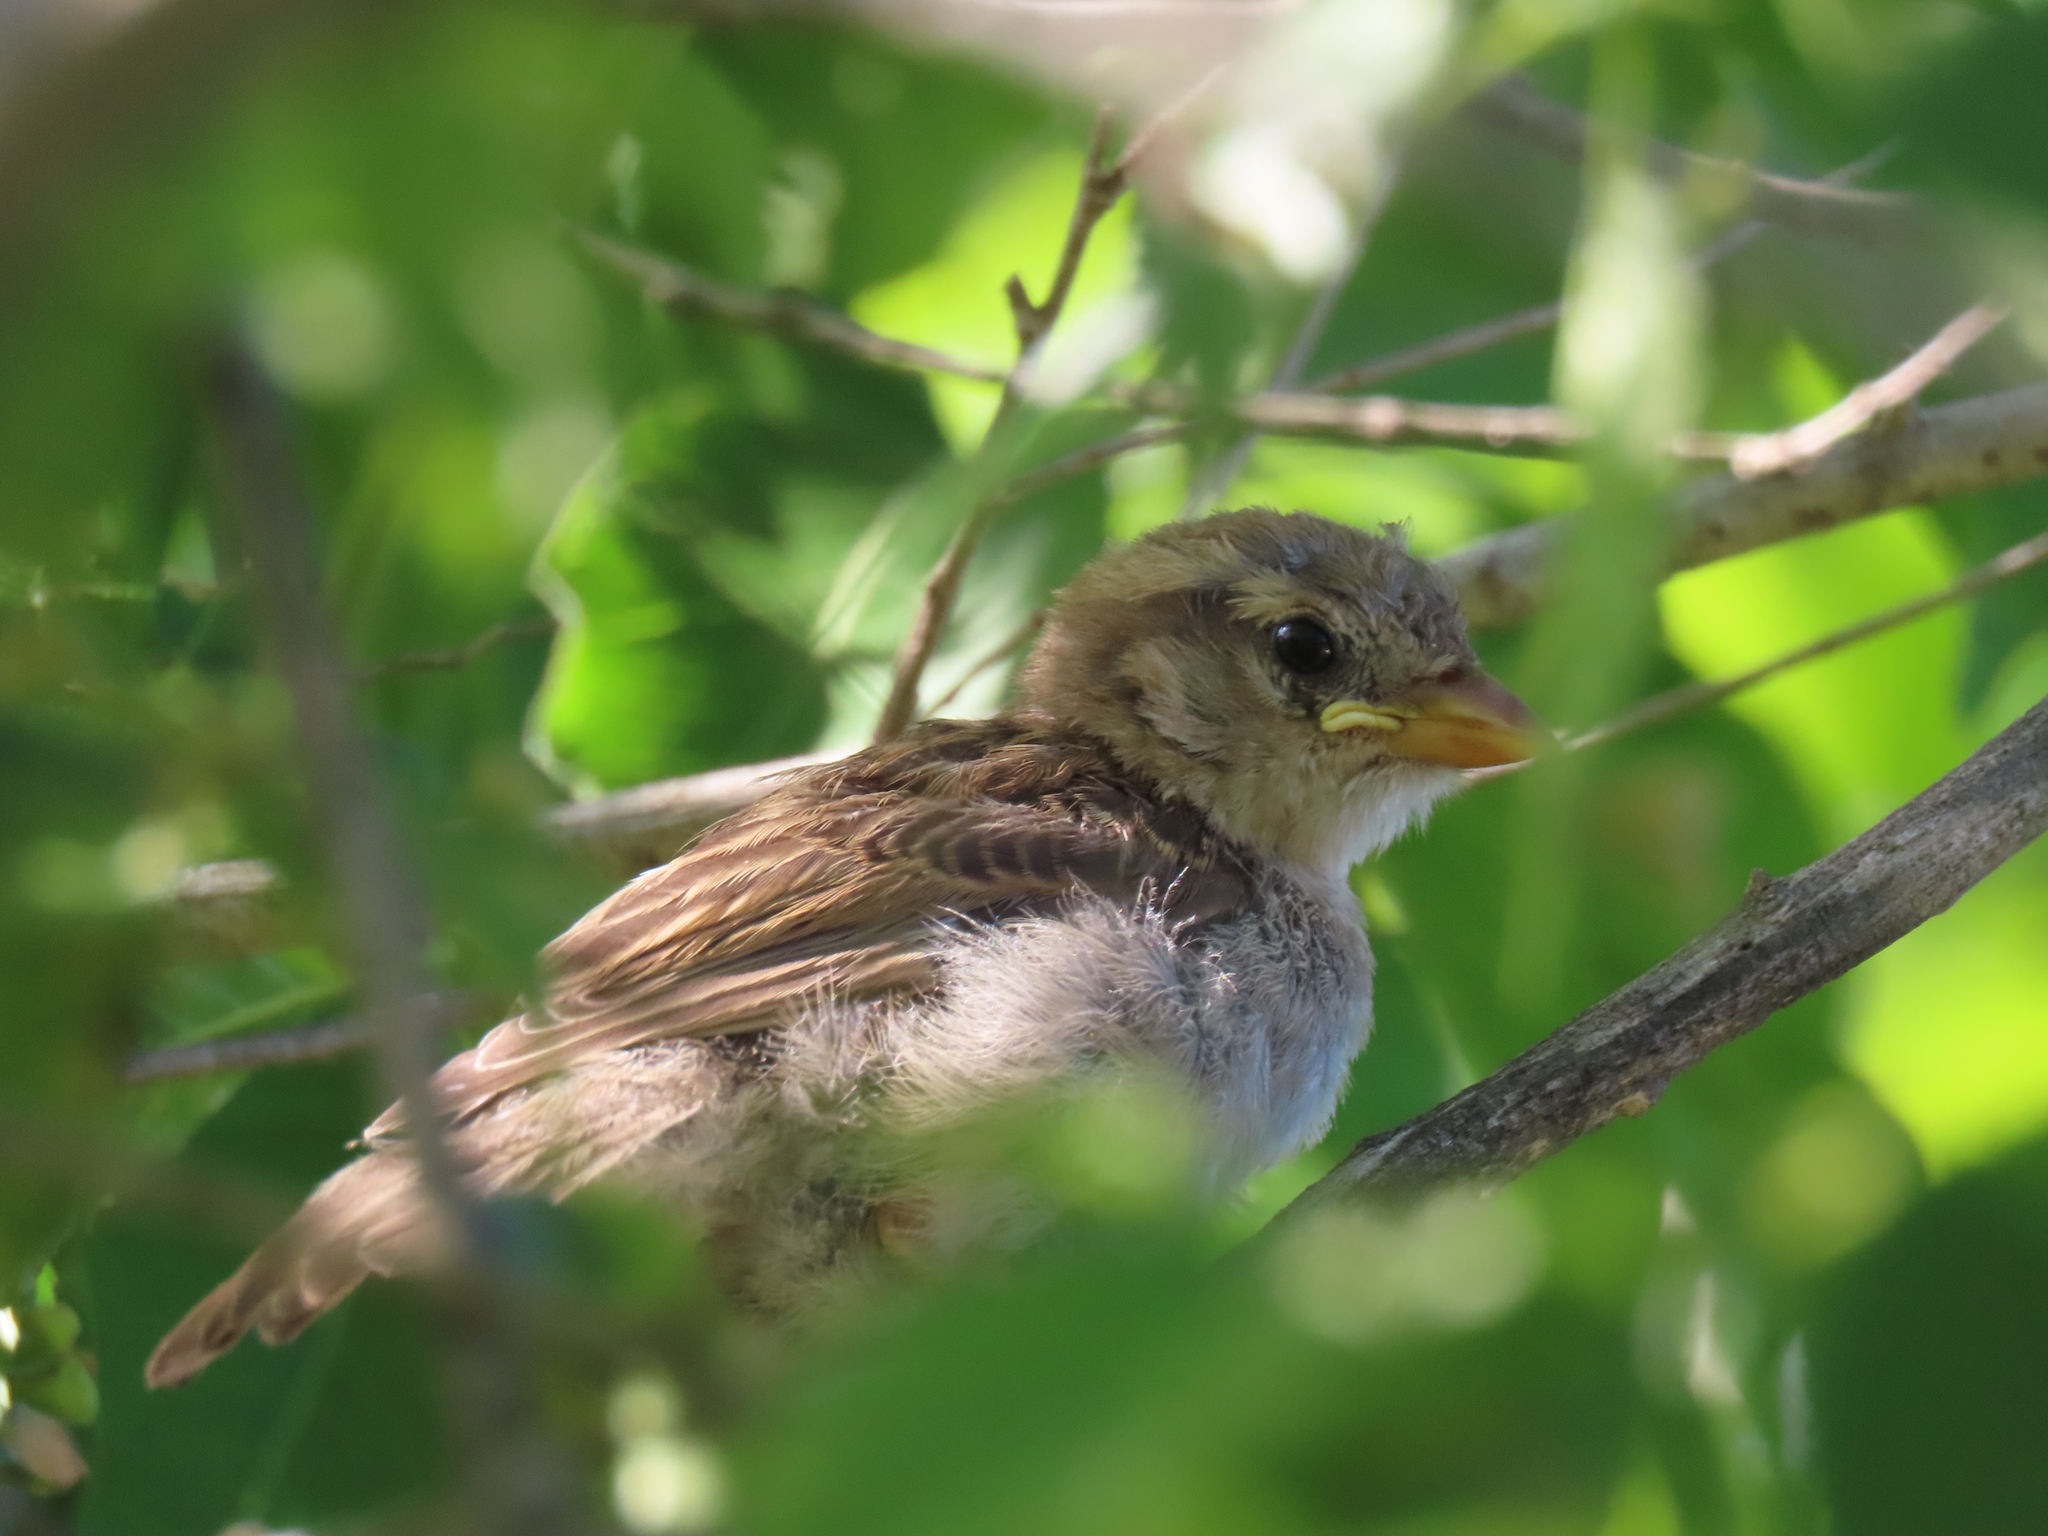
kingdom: Animalia
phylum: Chordata
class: Aves
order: Passeriformes
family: Passeridae
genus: Passer
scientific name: Passer domesticus
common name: House sparrow
